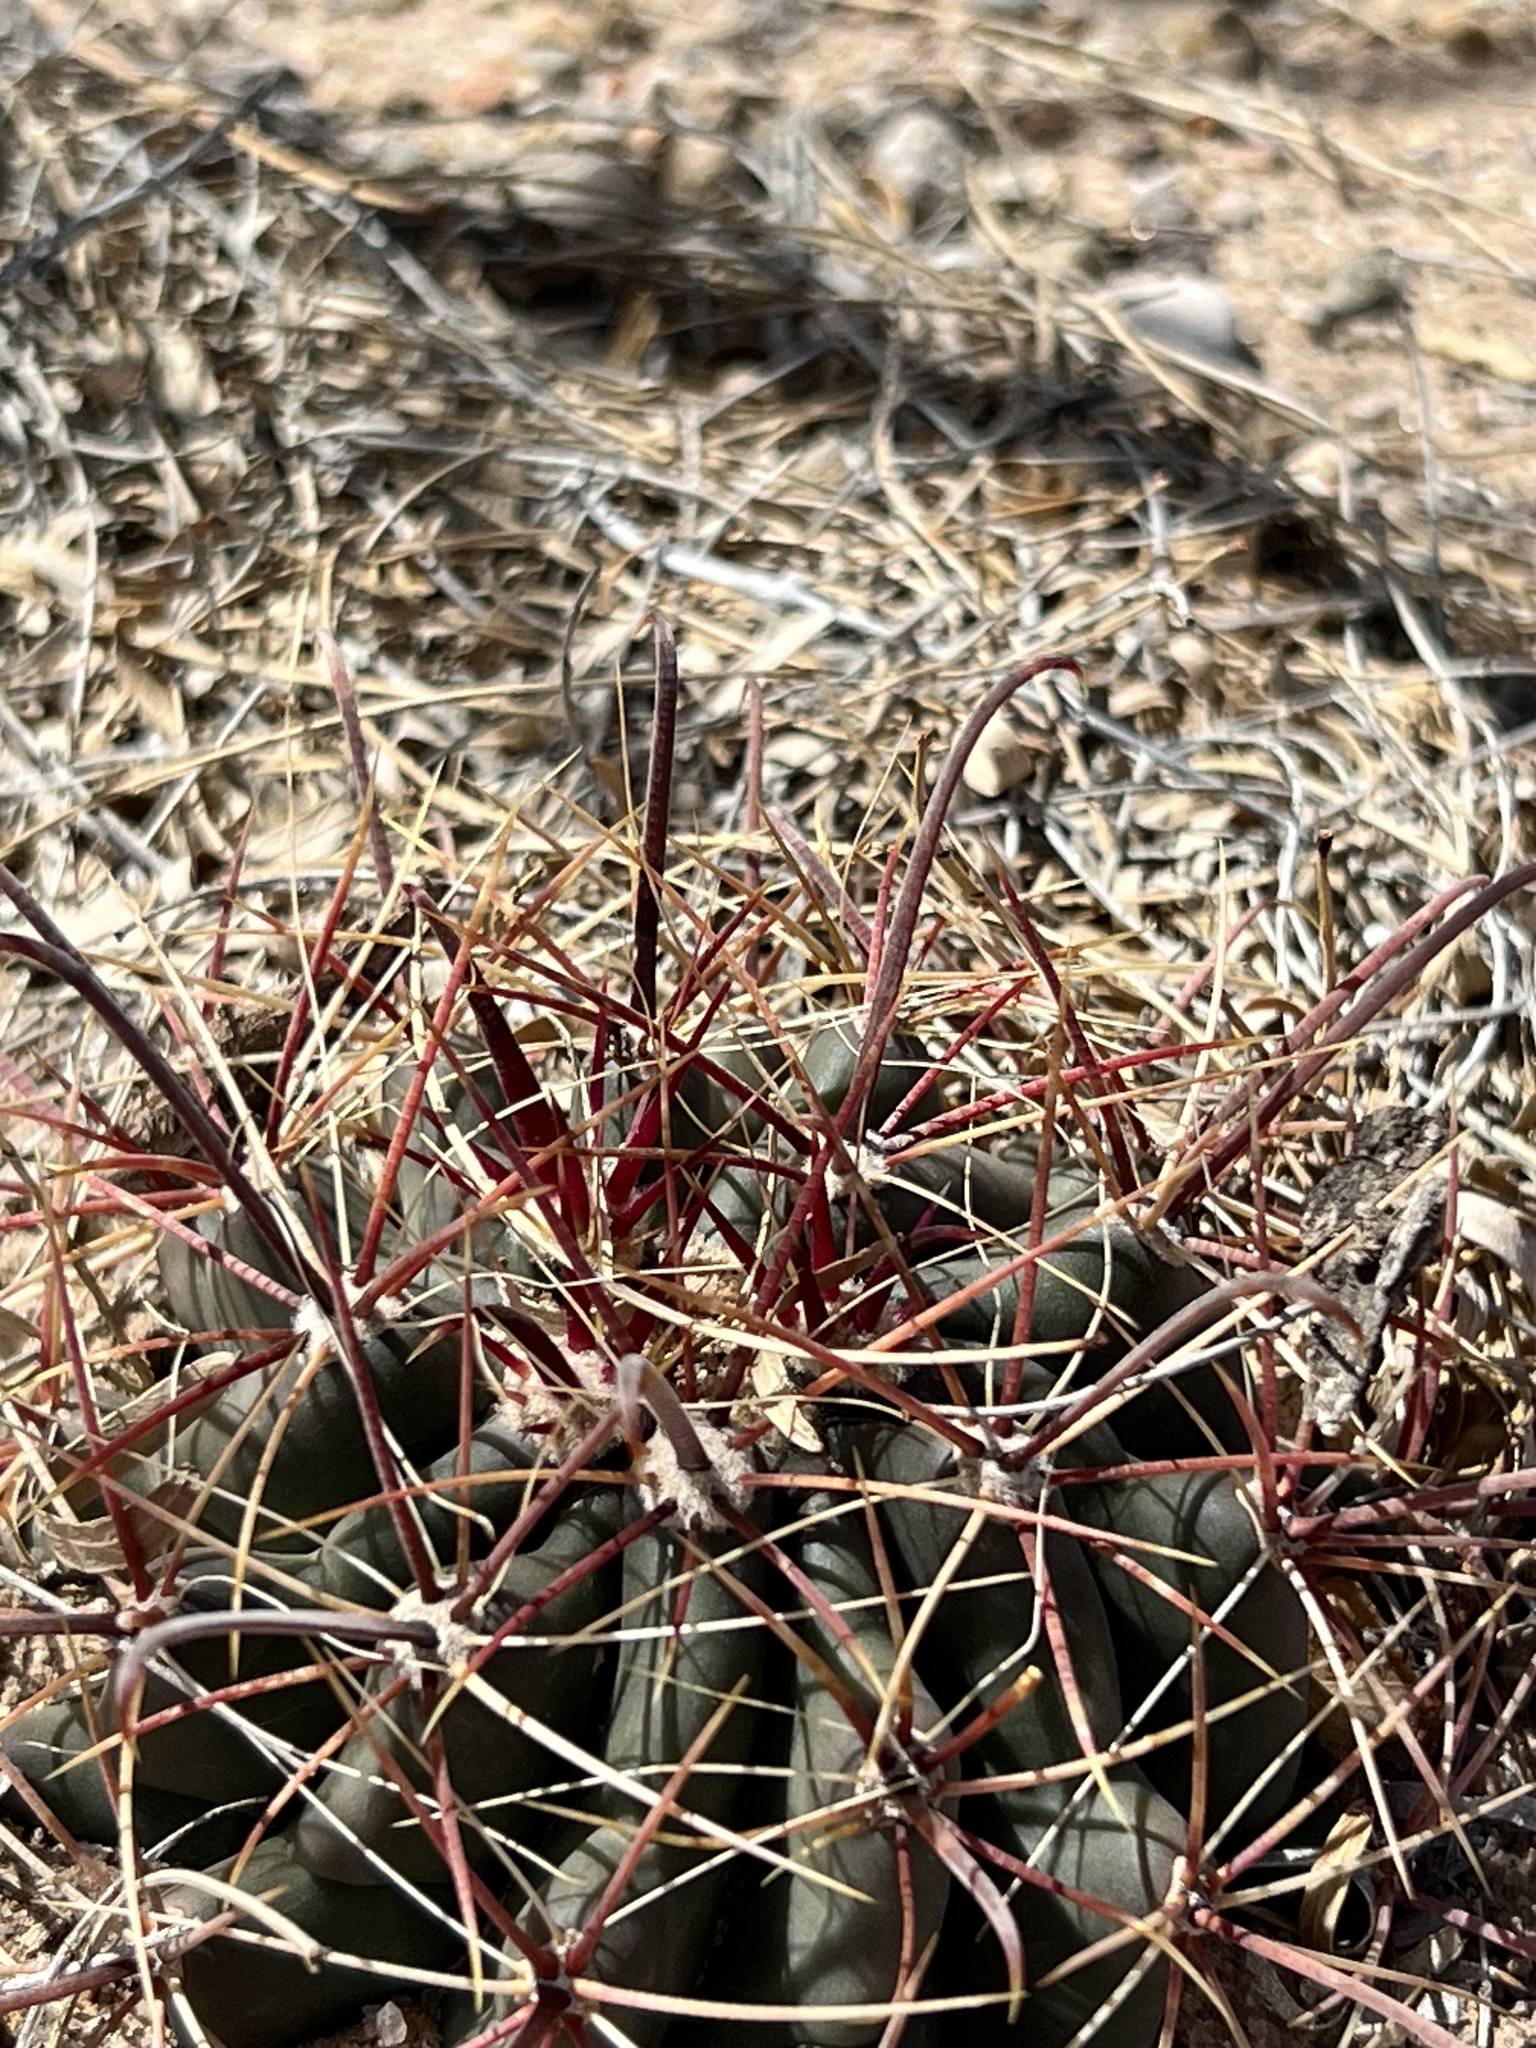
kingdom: Plantae
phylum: Tracheophyta
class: Magnoliopsida
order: Caryophyllales
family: Cactaceae
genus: Ferocactus
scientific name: Ferocactus wislizeni
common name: Candy barrel cactus
